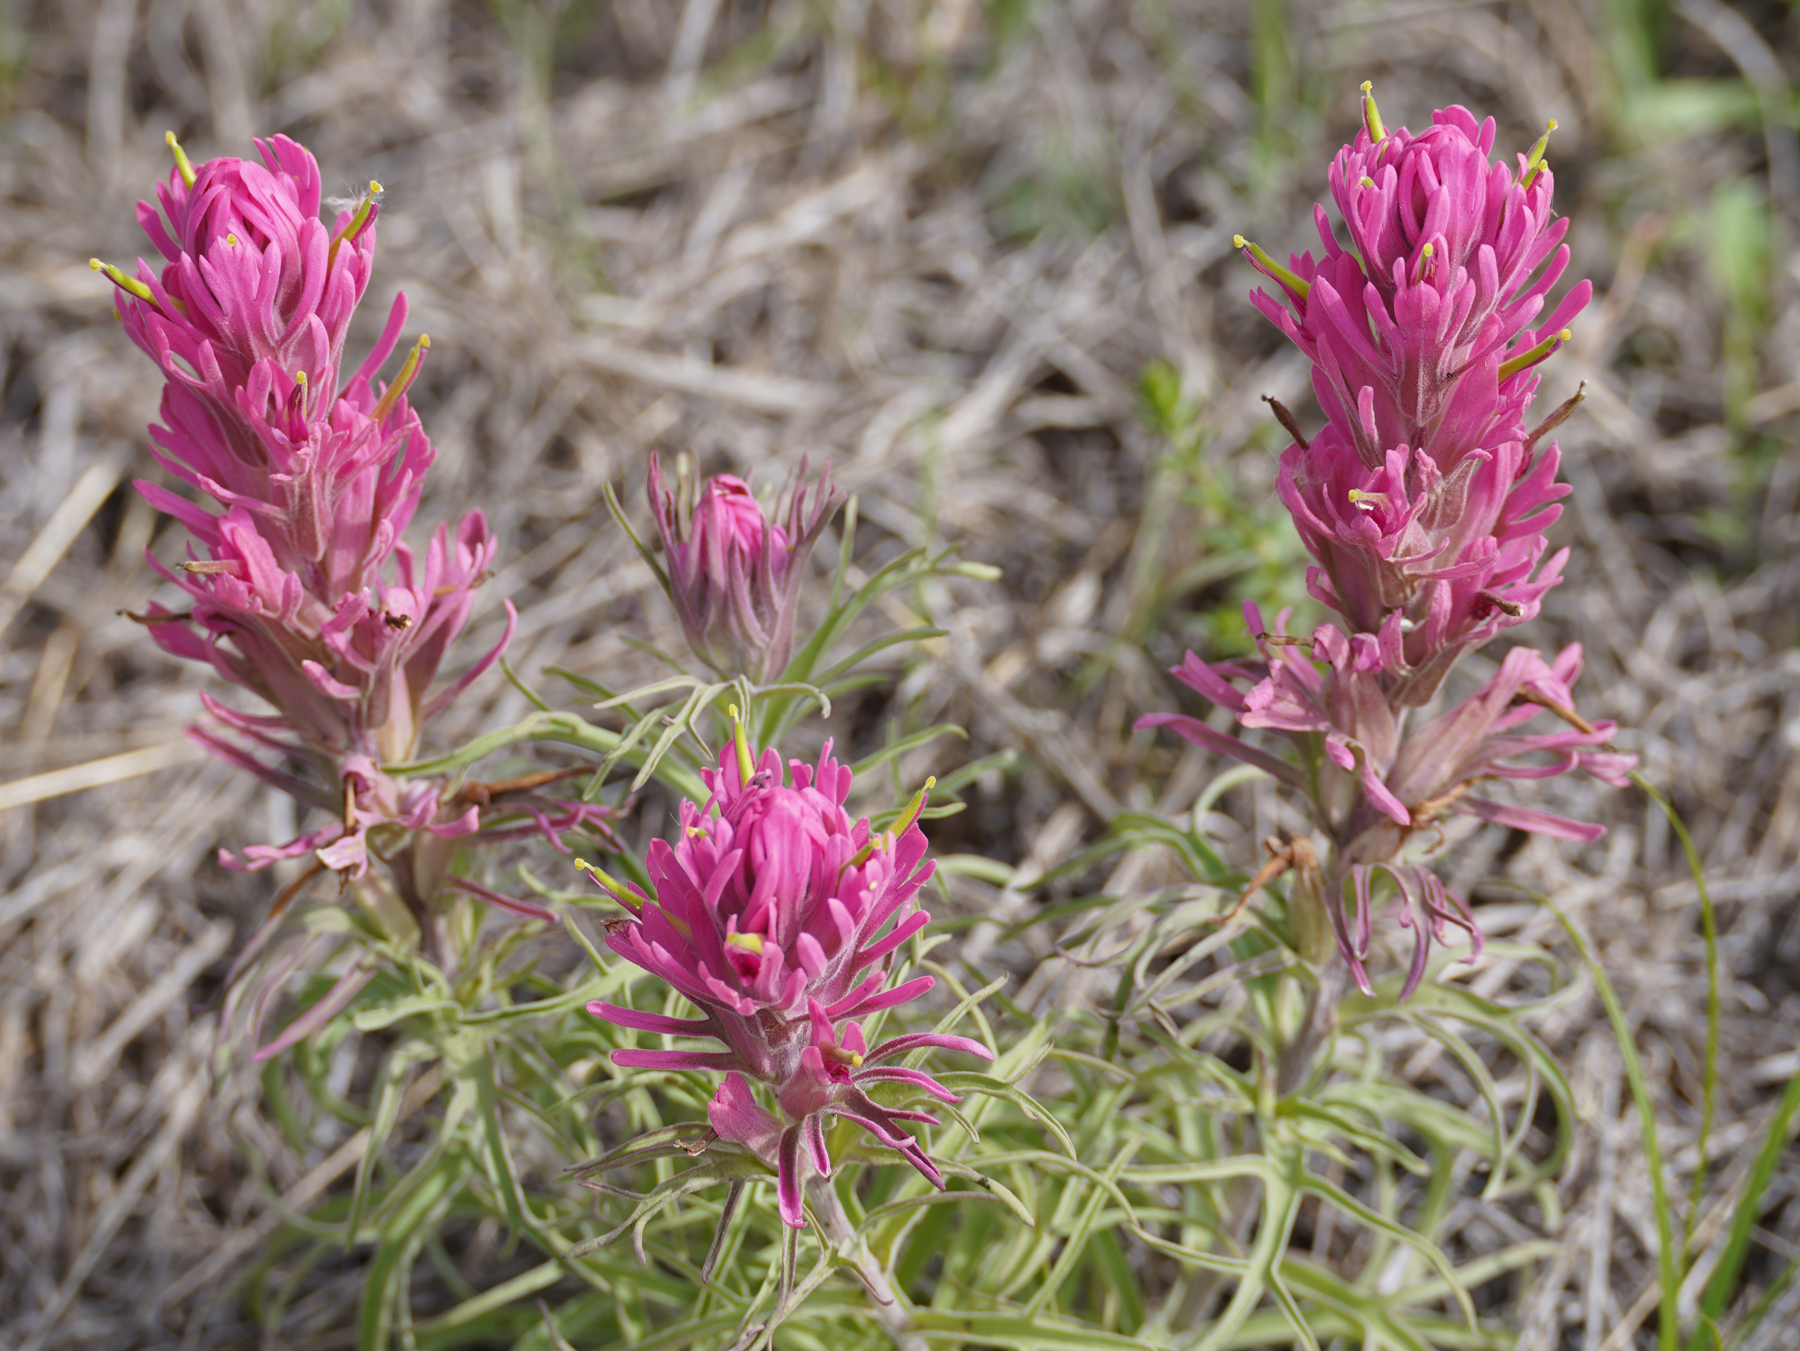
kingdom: Plantae
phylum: Tracheophyta
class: Magnoliopsida
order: Lamiales
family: Orobanchaceae
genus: Castilleja
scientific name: Castilleja purpurea
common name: Plains paintbrush
